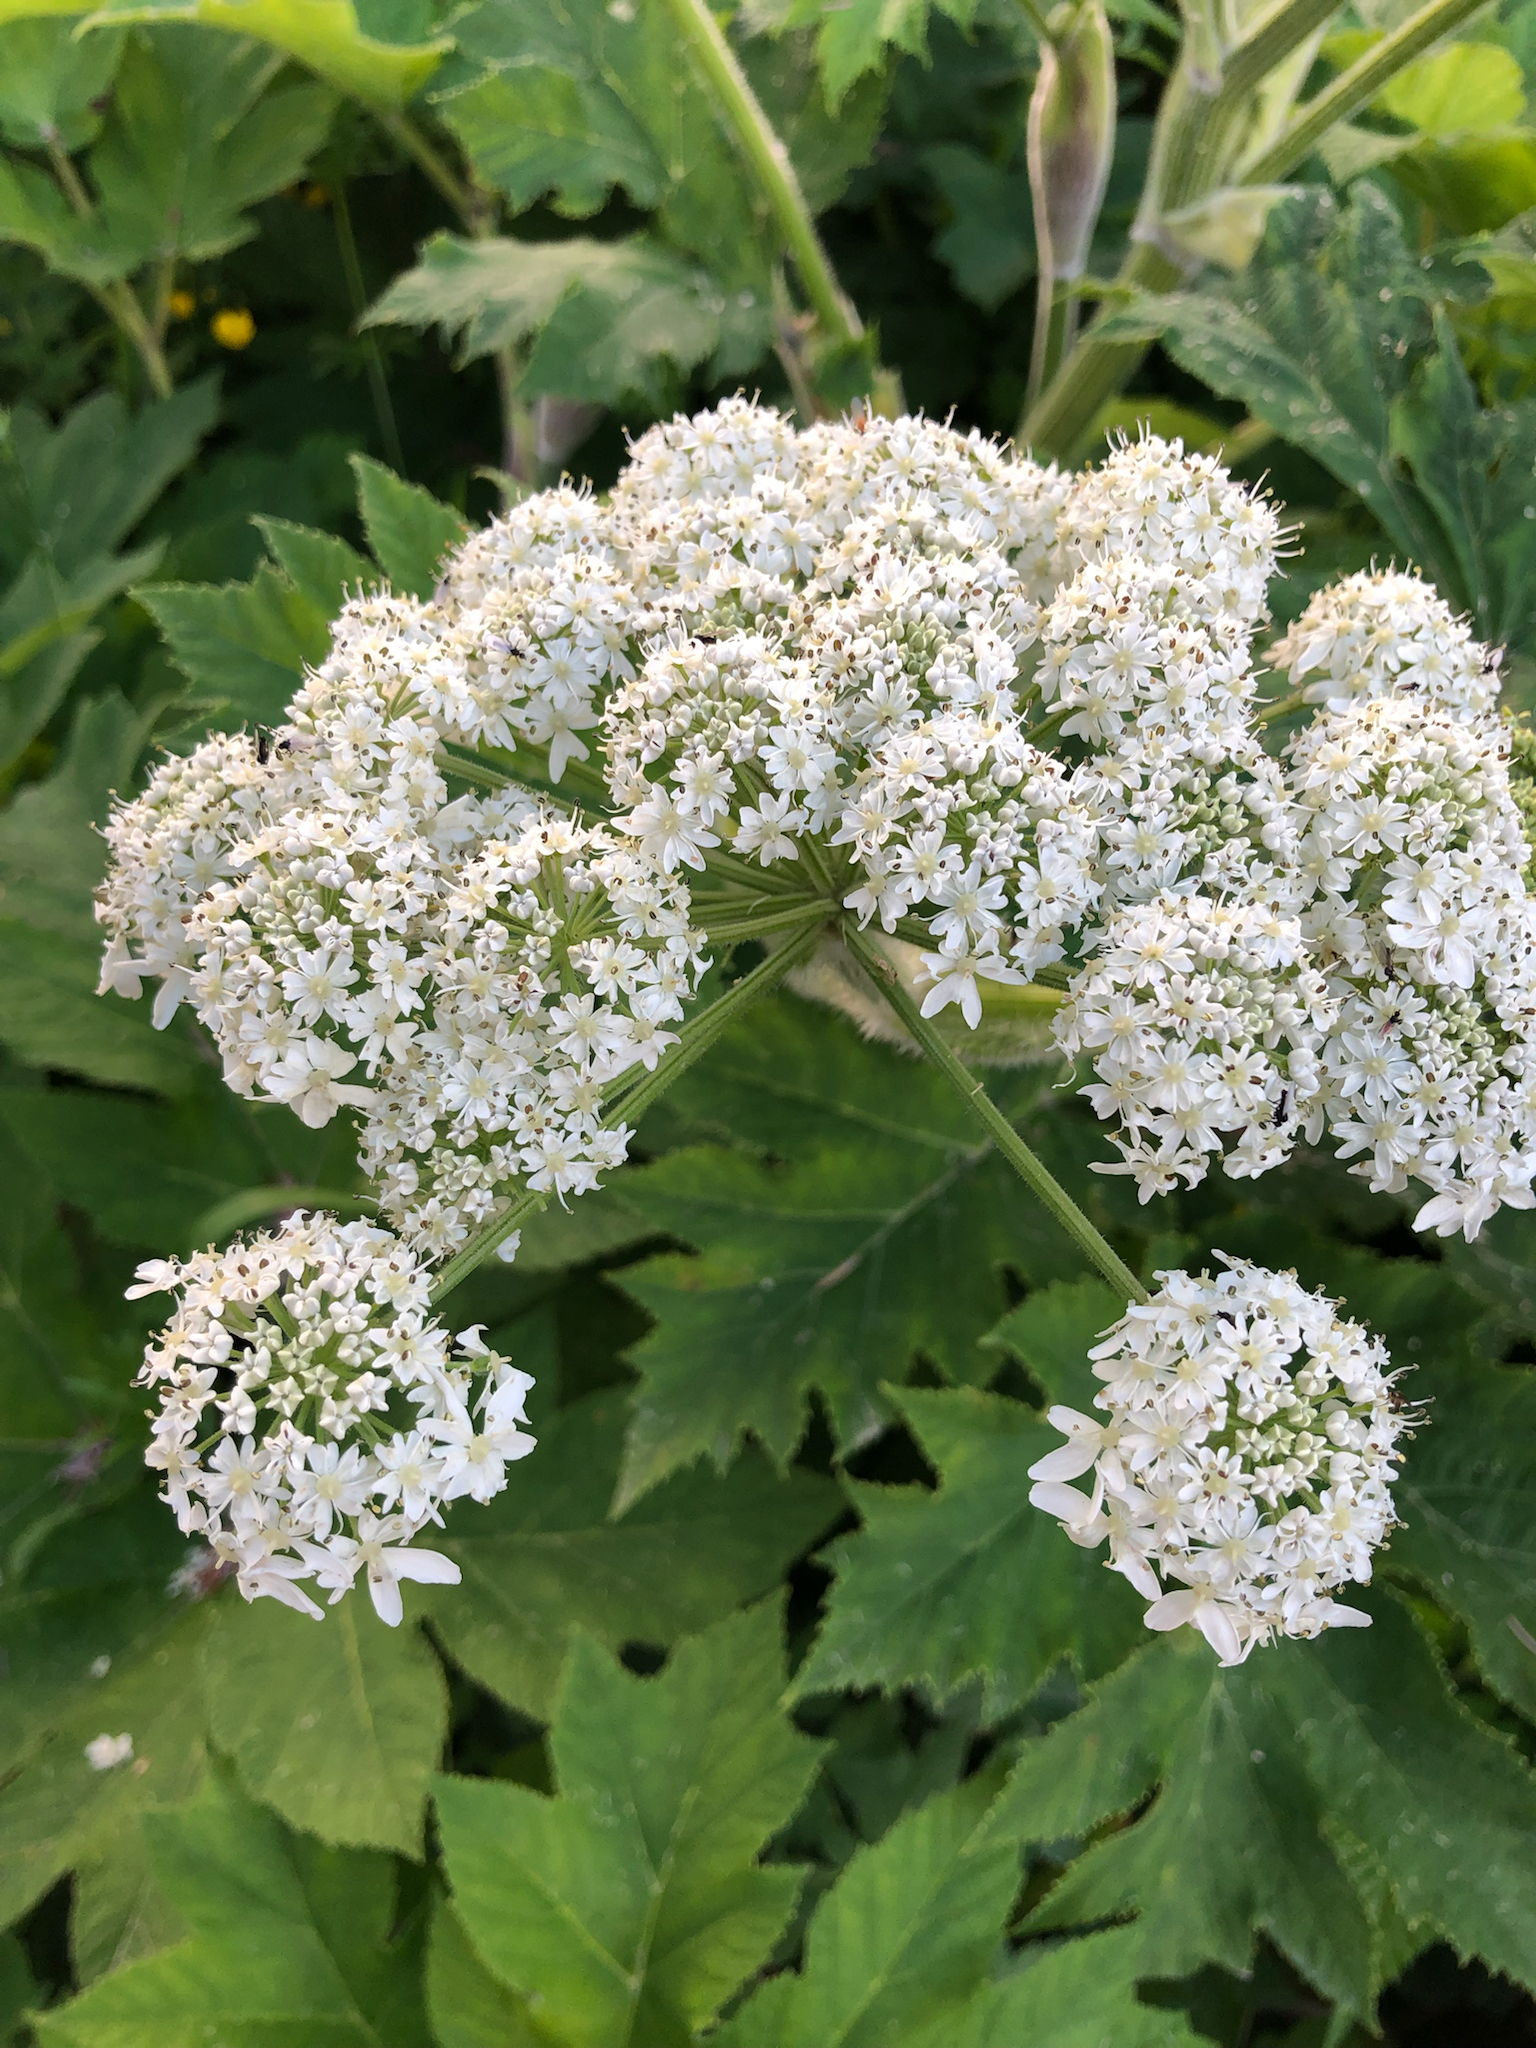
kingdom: Plantae
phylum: Tracheophyta
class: Magnoliopsida
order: Apiales
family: Apiaceae
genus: Heracleum
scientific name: Heracleum maximum
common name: American cow parsnip
